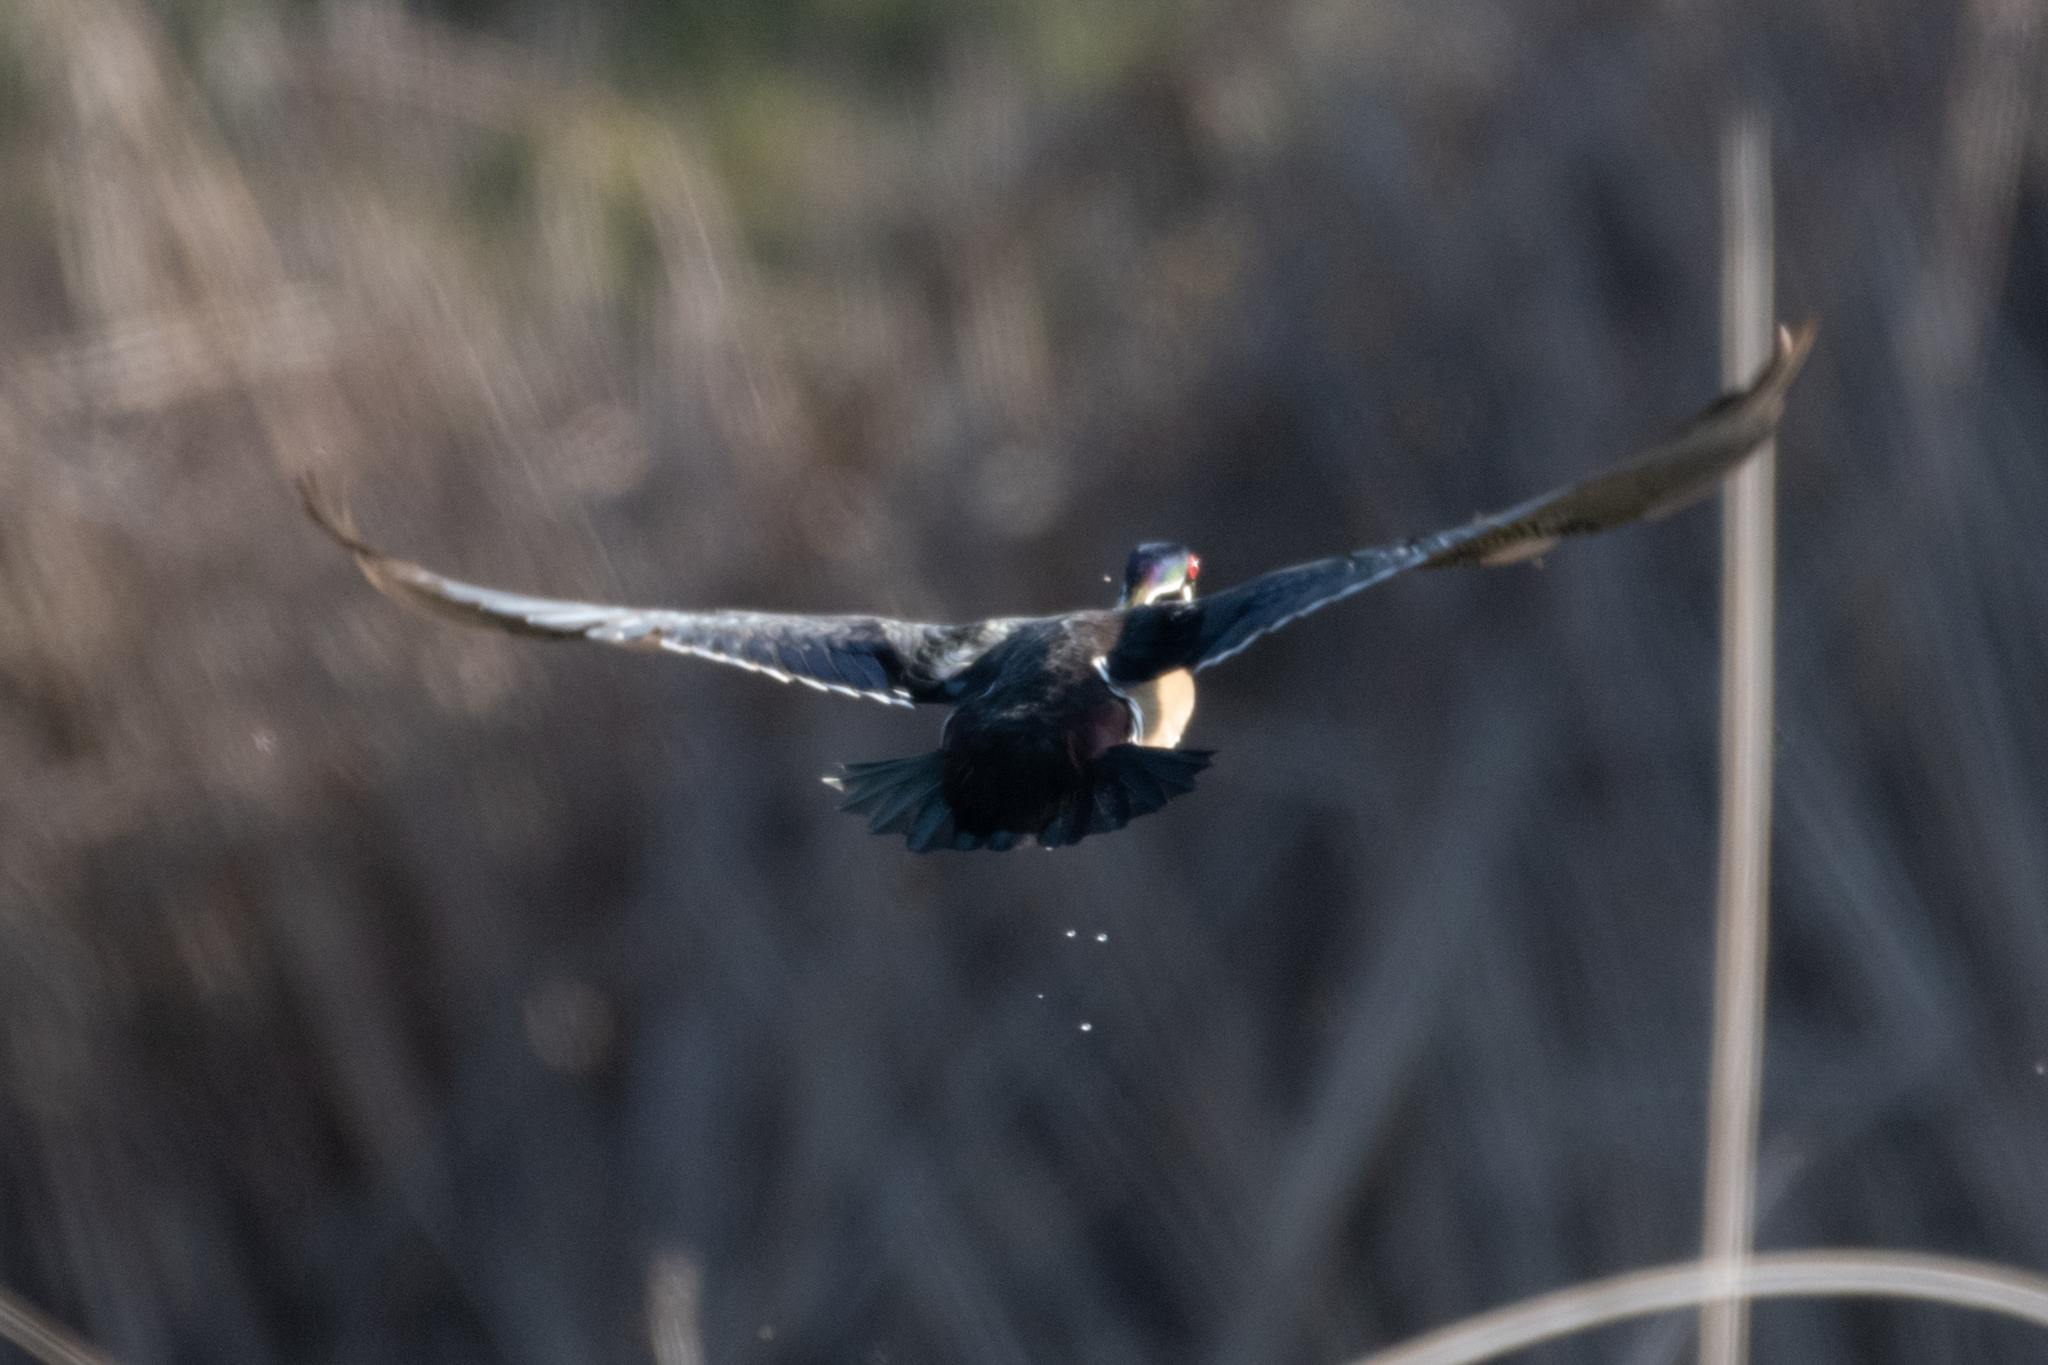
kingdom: Animalia
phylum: Chordata
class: Aves
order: Anseriformes
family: Anatidae
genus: Aix
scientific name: Aix sponsa
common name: Wood duck
